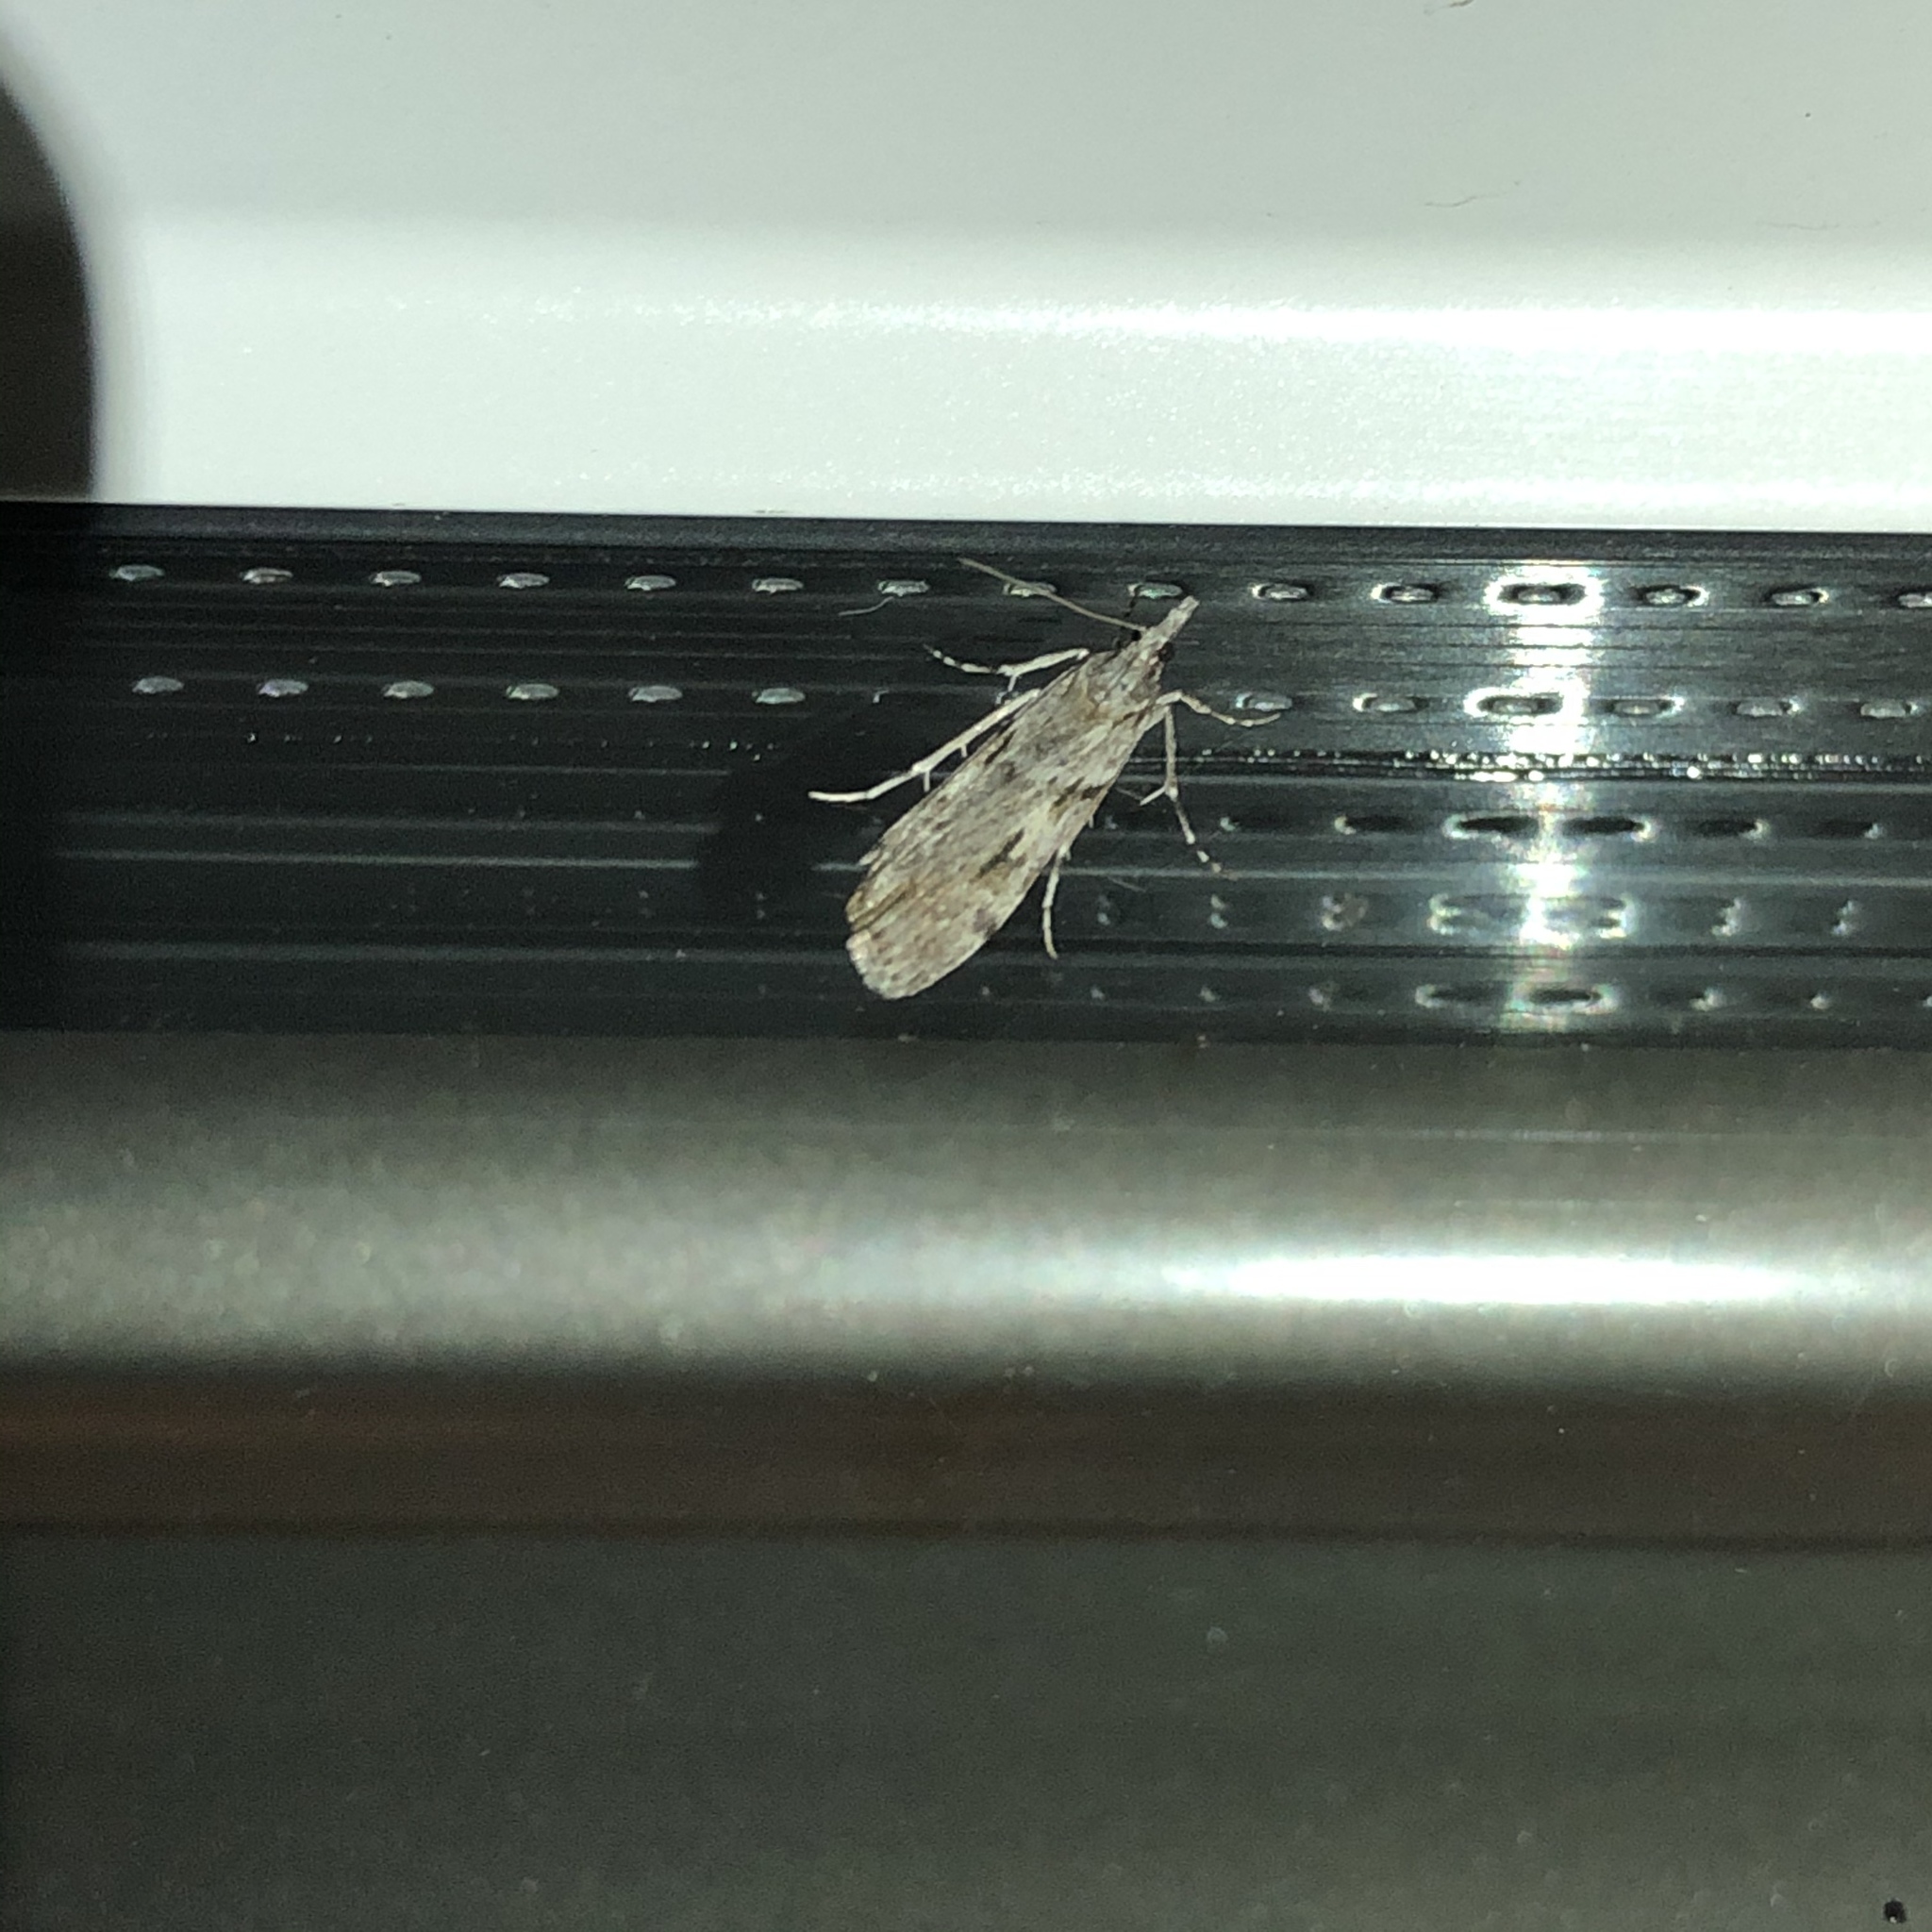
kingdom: Animalia
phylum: Arthropoda
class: Insecta
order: Lepidoptera
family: Crambidae
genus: Scoparia
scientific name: Scoparia halopis
